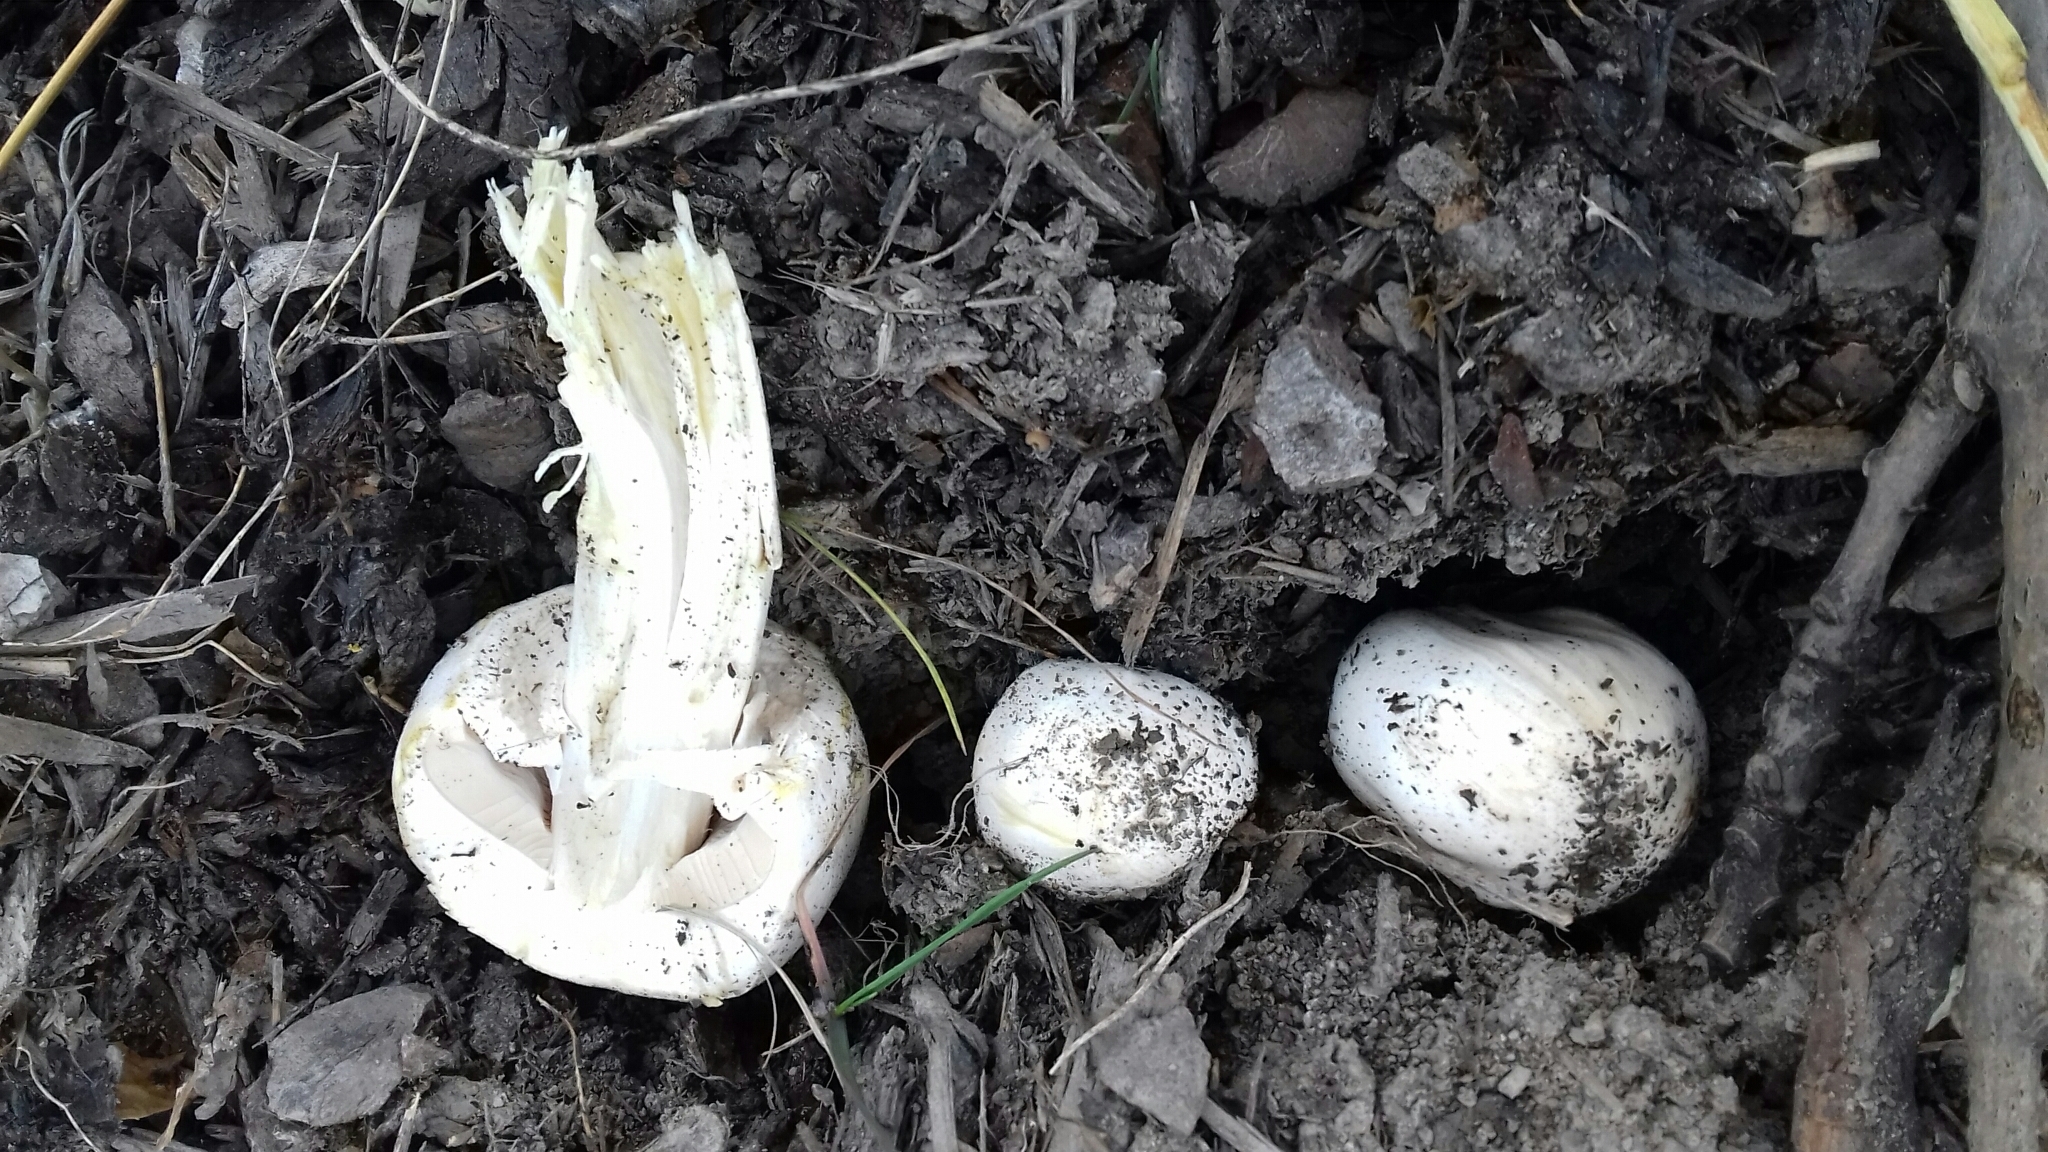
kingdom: Fungi
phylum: Basidiomycota
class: Agaricomycetes
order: Agaricales
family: Agaricaceae
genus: Agaricus
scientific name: Agaricus xanthodermus
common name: Yellow stainer
